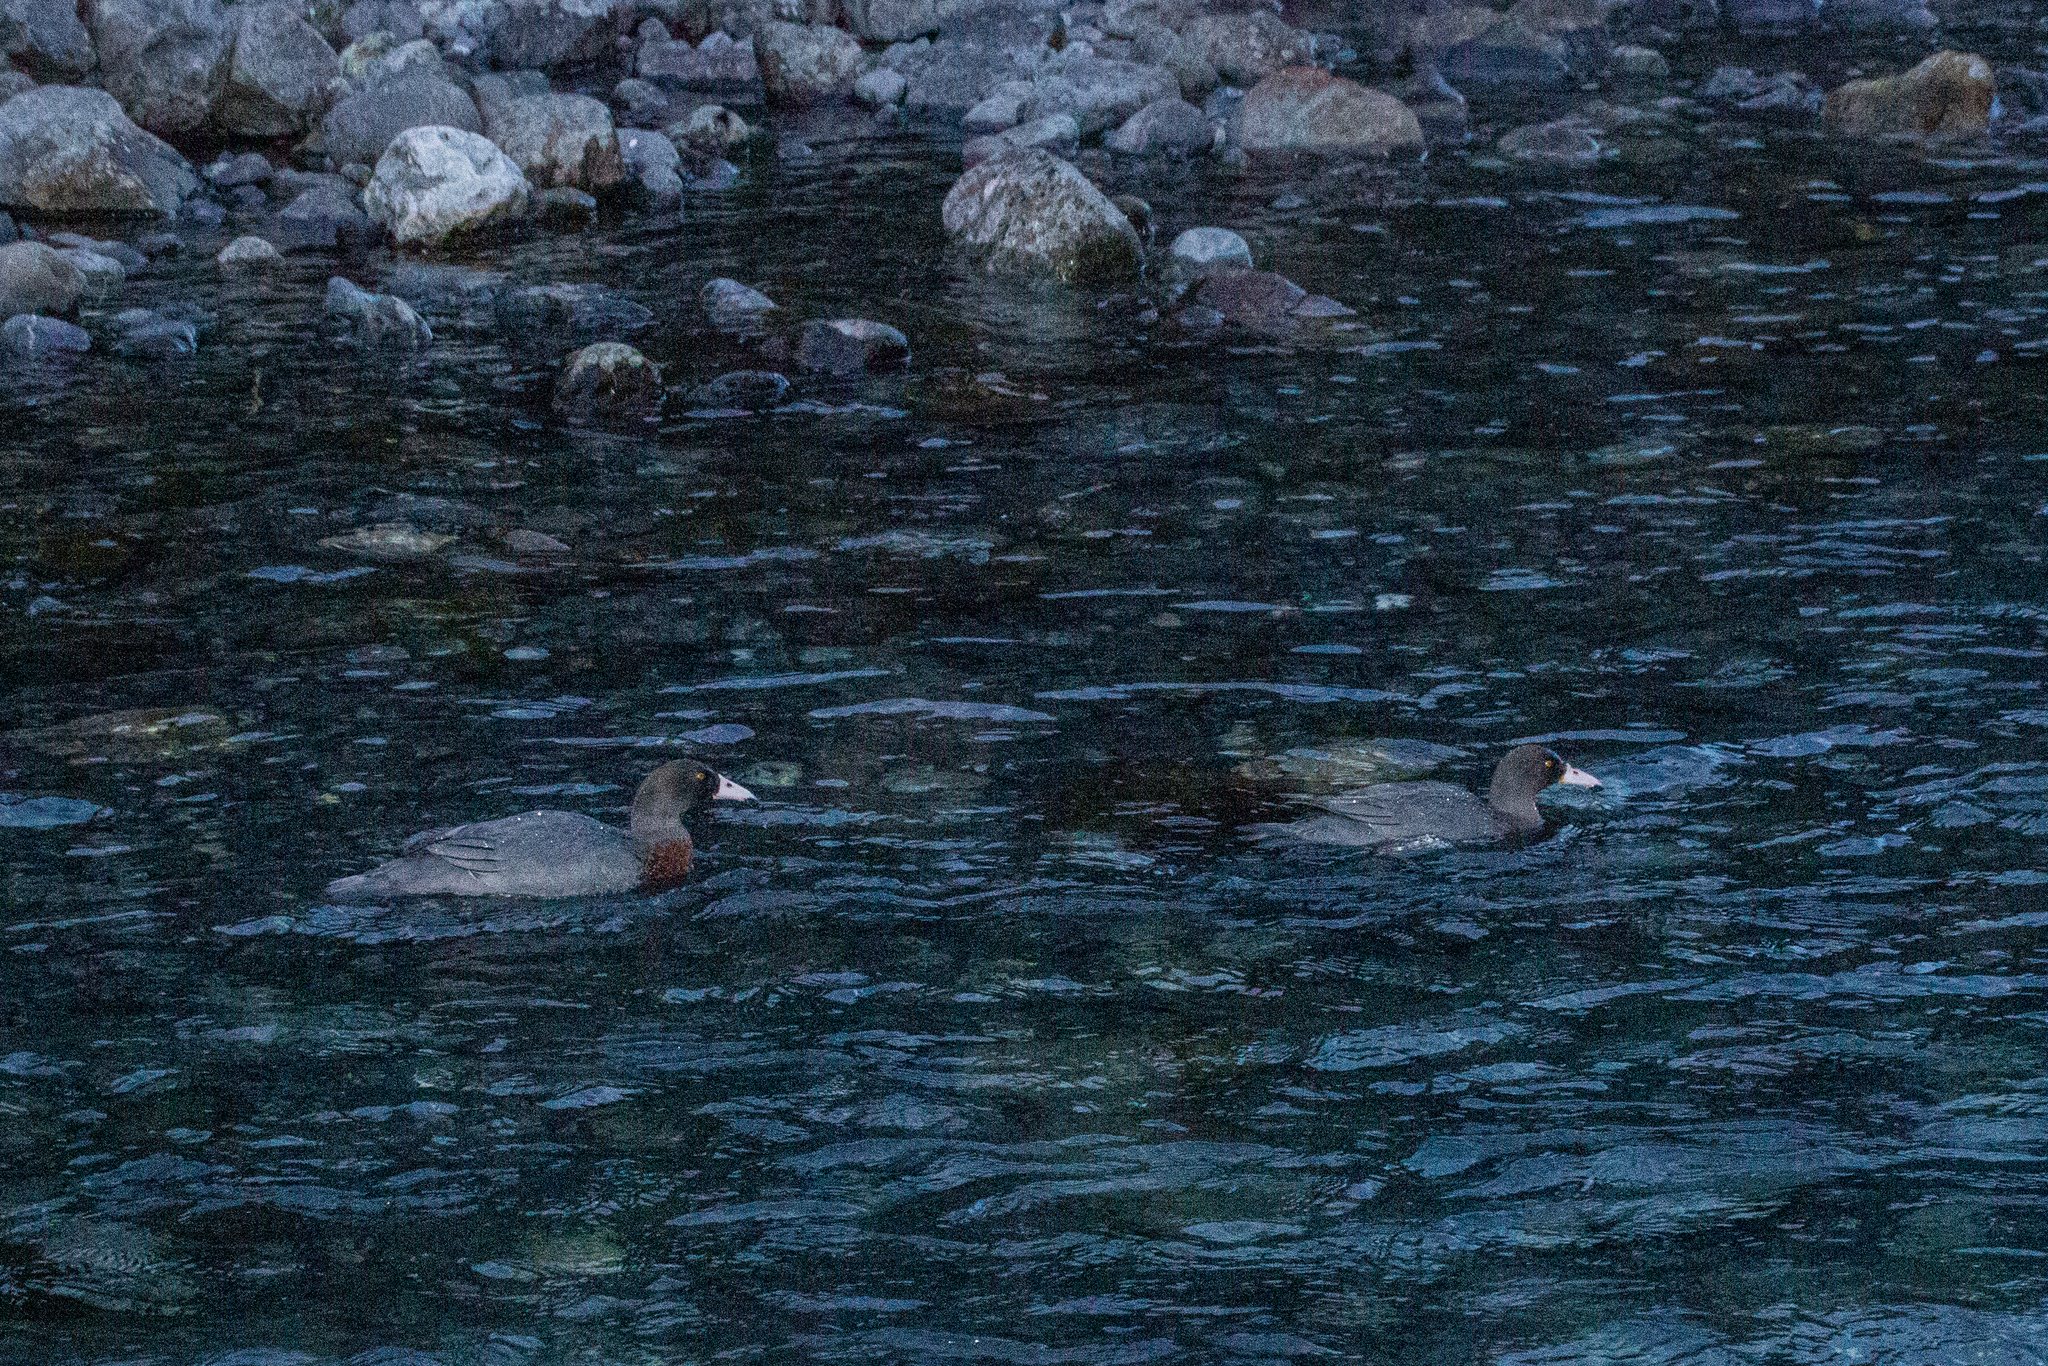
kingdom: Animalia
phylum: Chordata
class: Aves
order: Anseriformes
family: Anatidae
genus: Hymenolaimus
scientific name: Hymenolaimus malacorhynchos
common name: Blue duck
